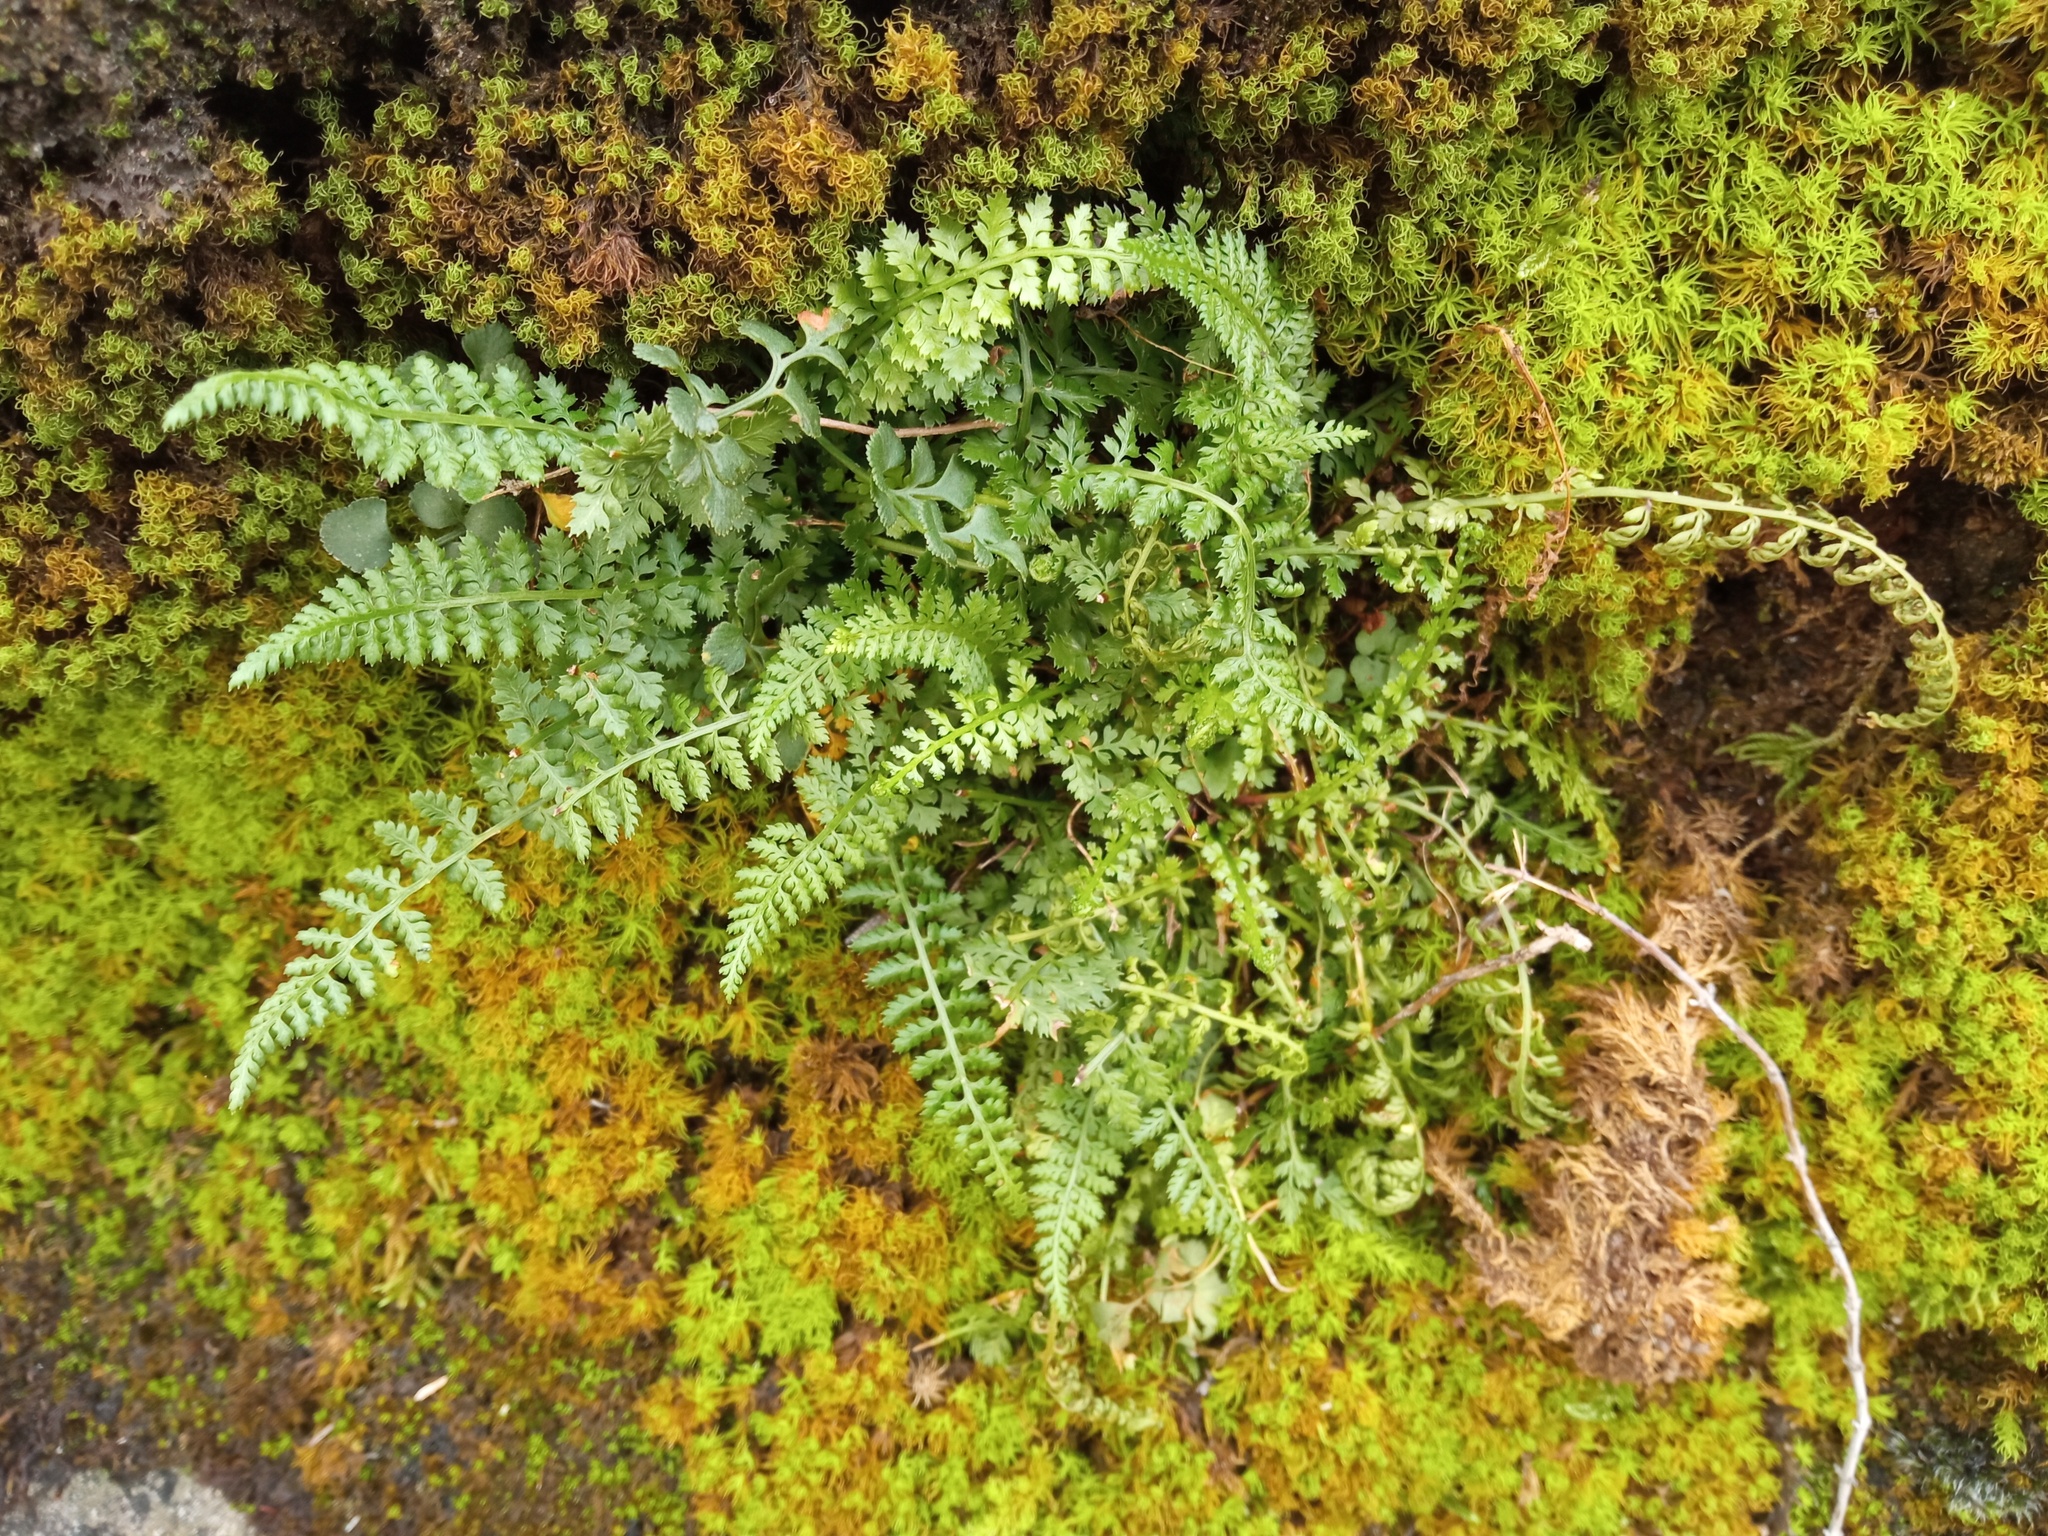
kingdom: Plantae
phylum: Tracheophyta
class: Polypodiopsida
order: Polypodiales
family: Aspleniaceae
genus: Asplenium
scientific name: Asplenium fontanum
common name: Fountain spleenwort
